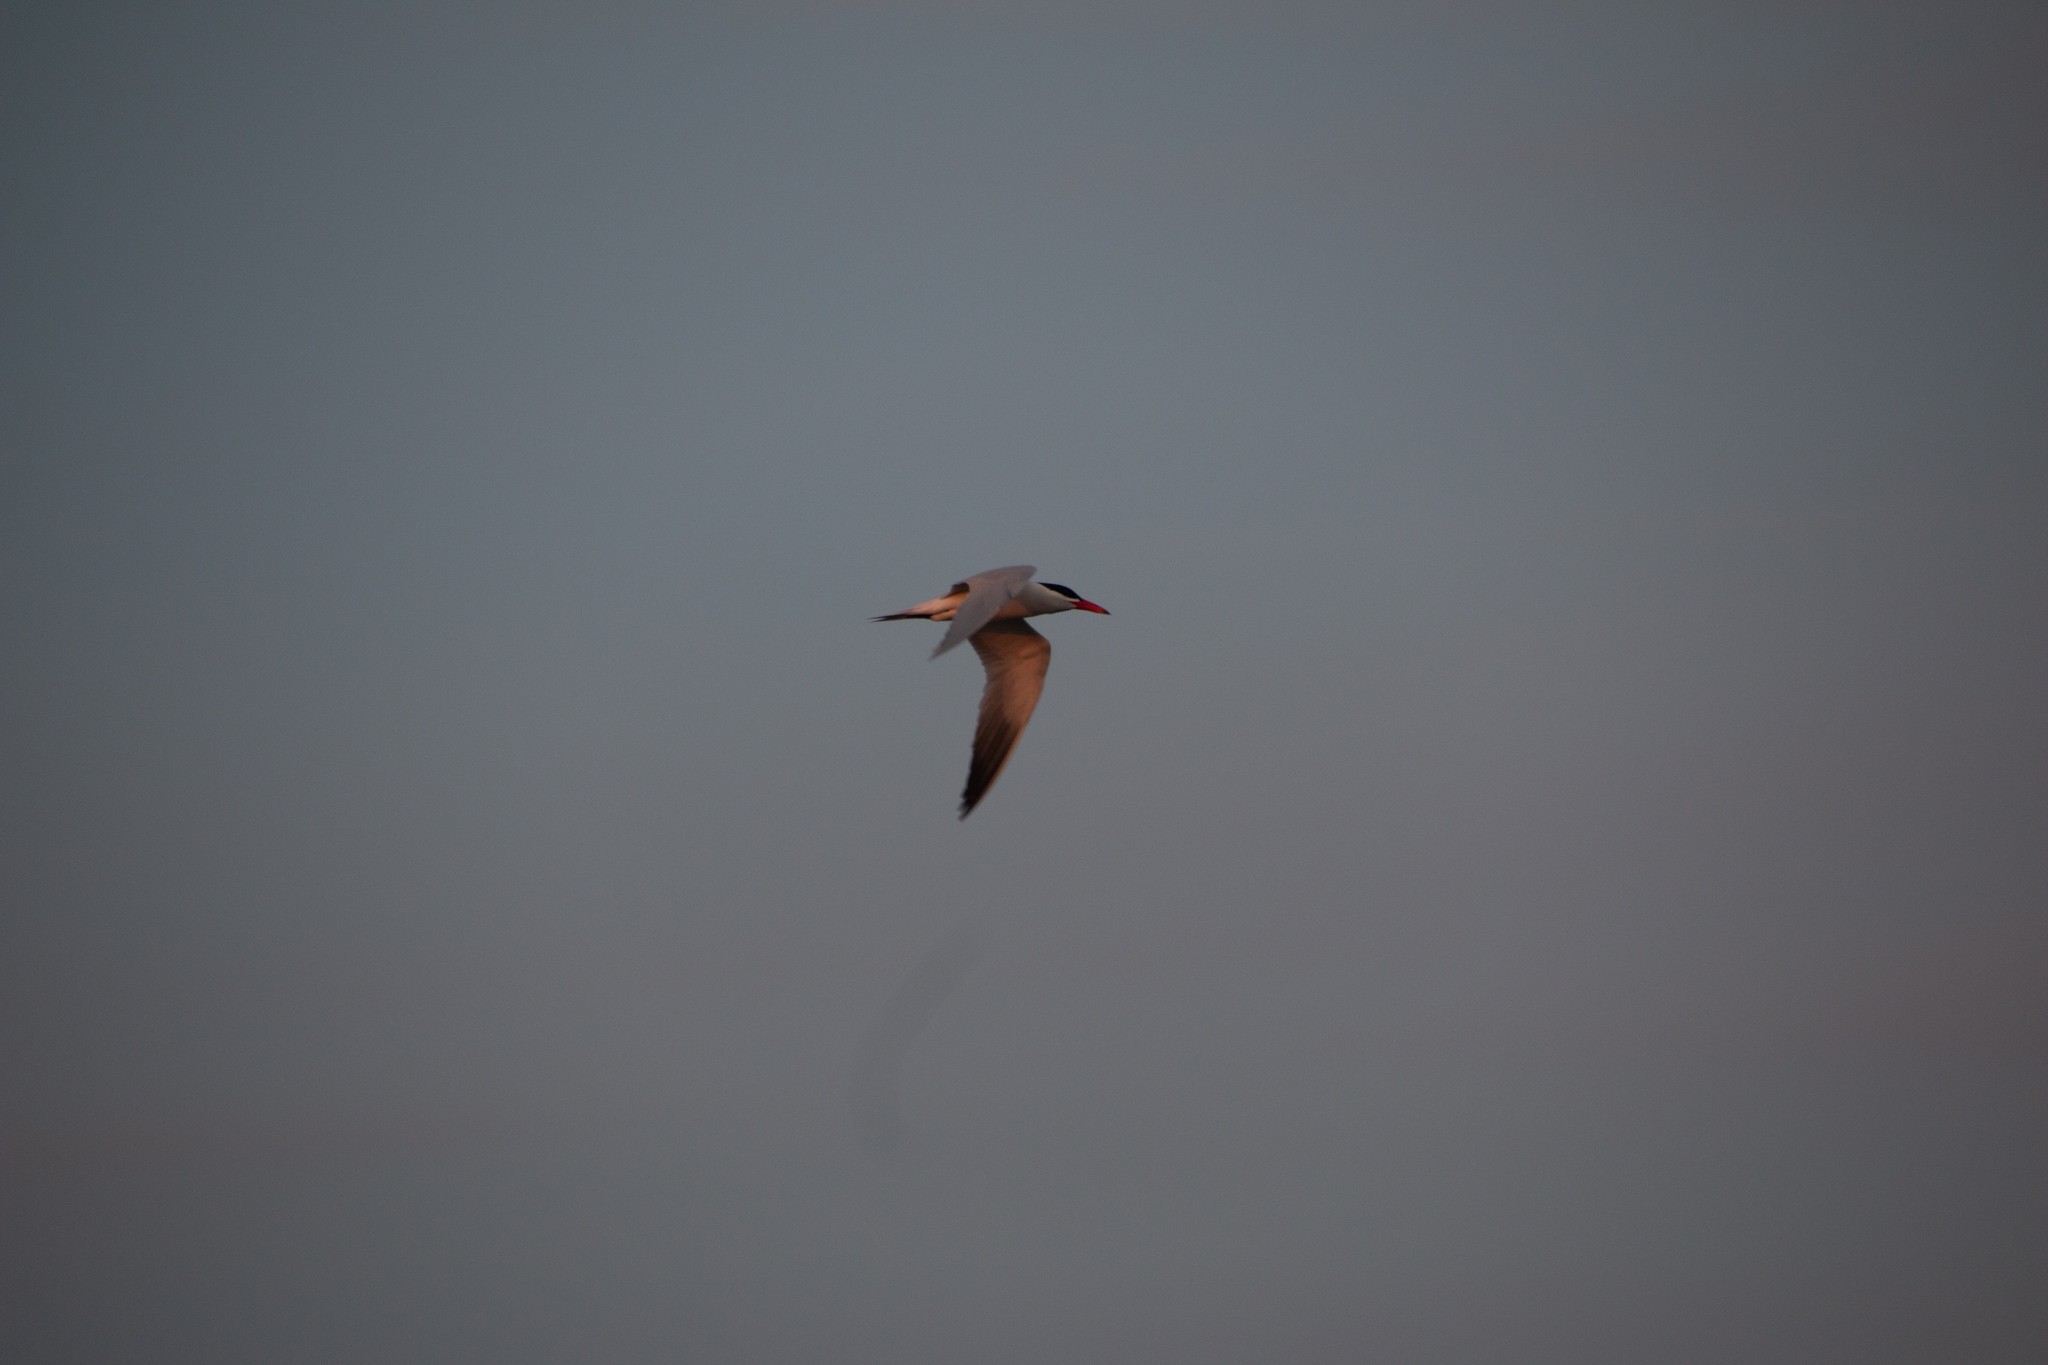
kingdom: Animalia
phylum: Chordata
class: Aves
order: Charadriiformes
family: Laridae
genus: Hydroprogne
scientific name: Hydroprogne caspia
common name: Caspian tern
